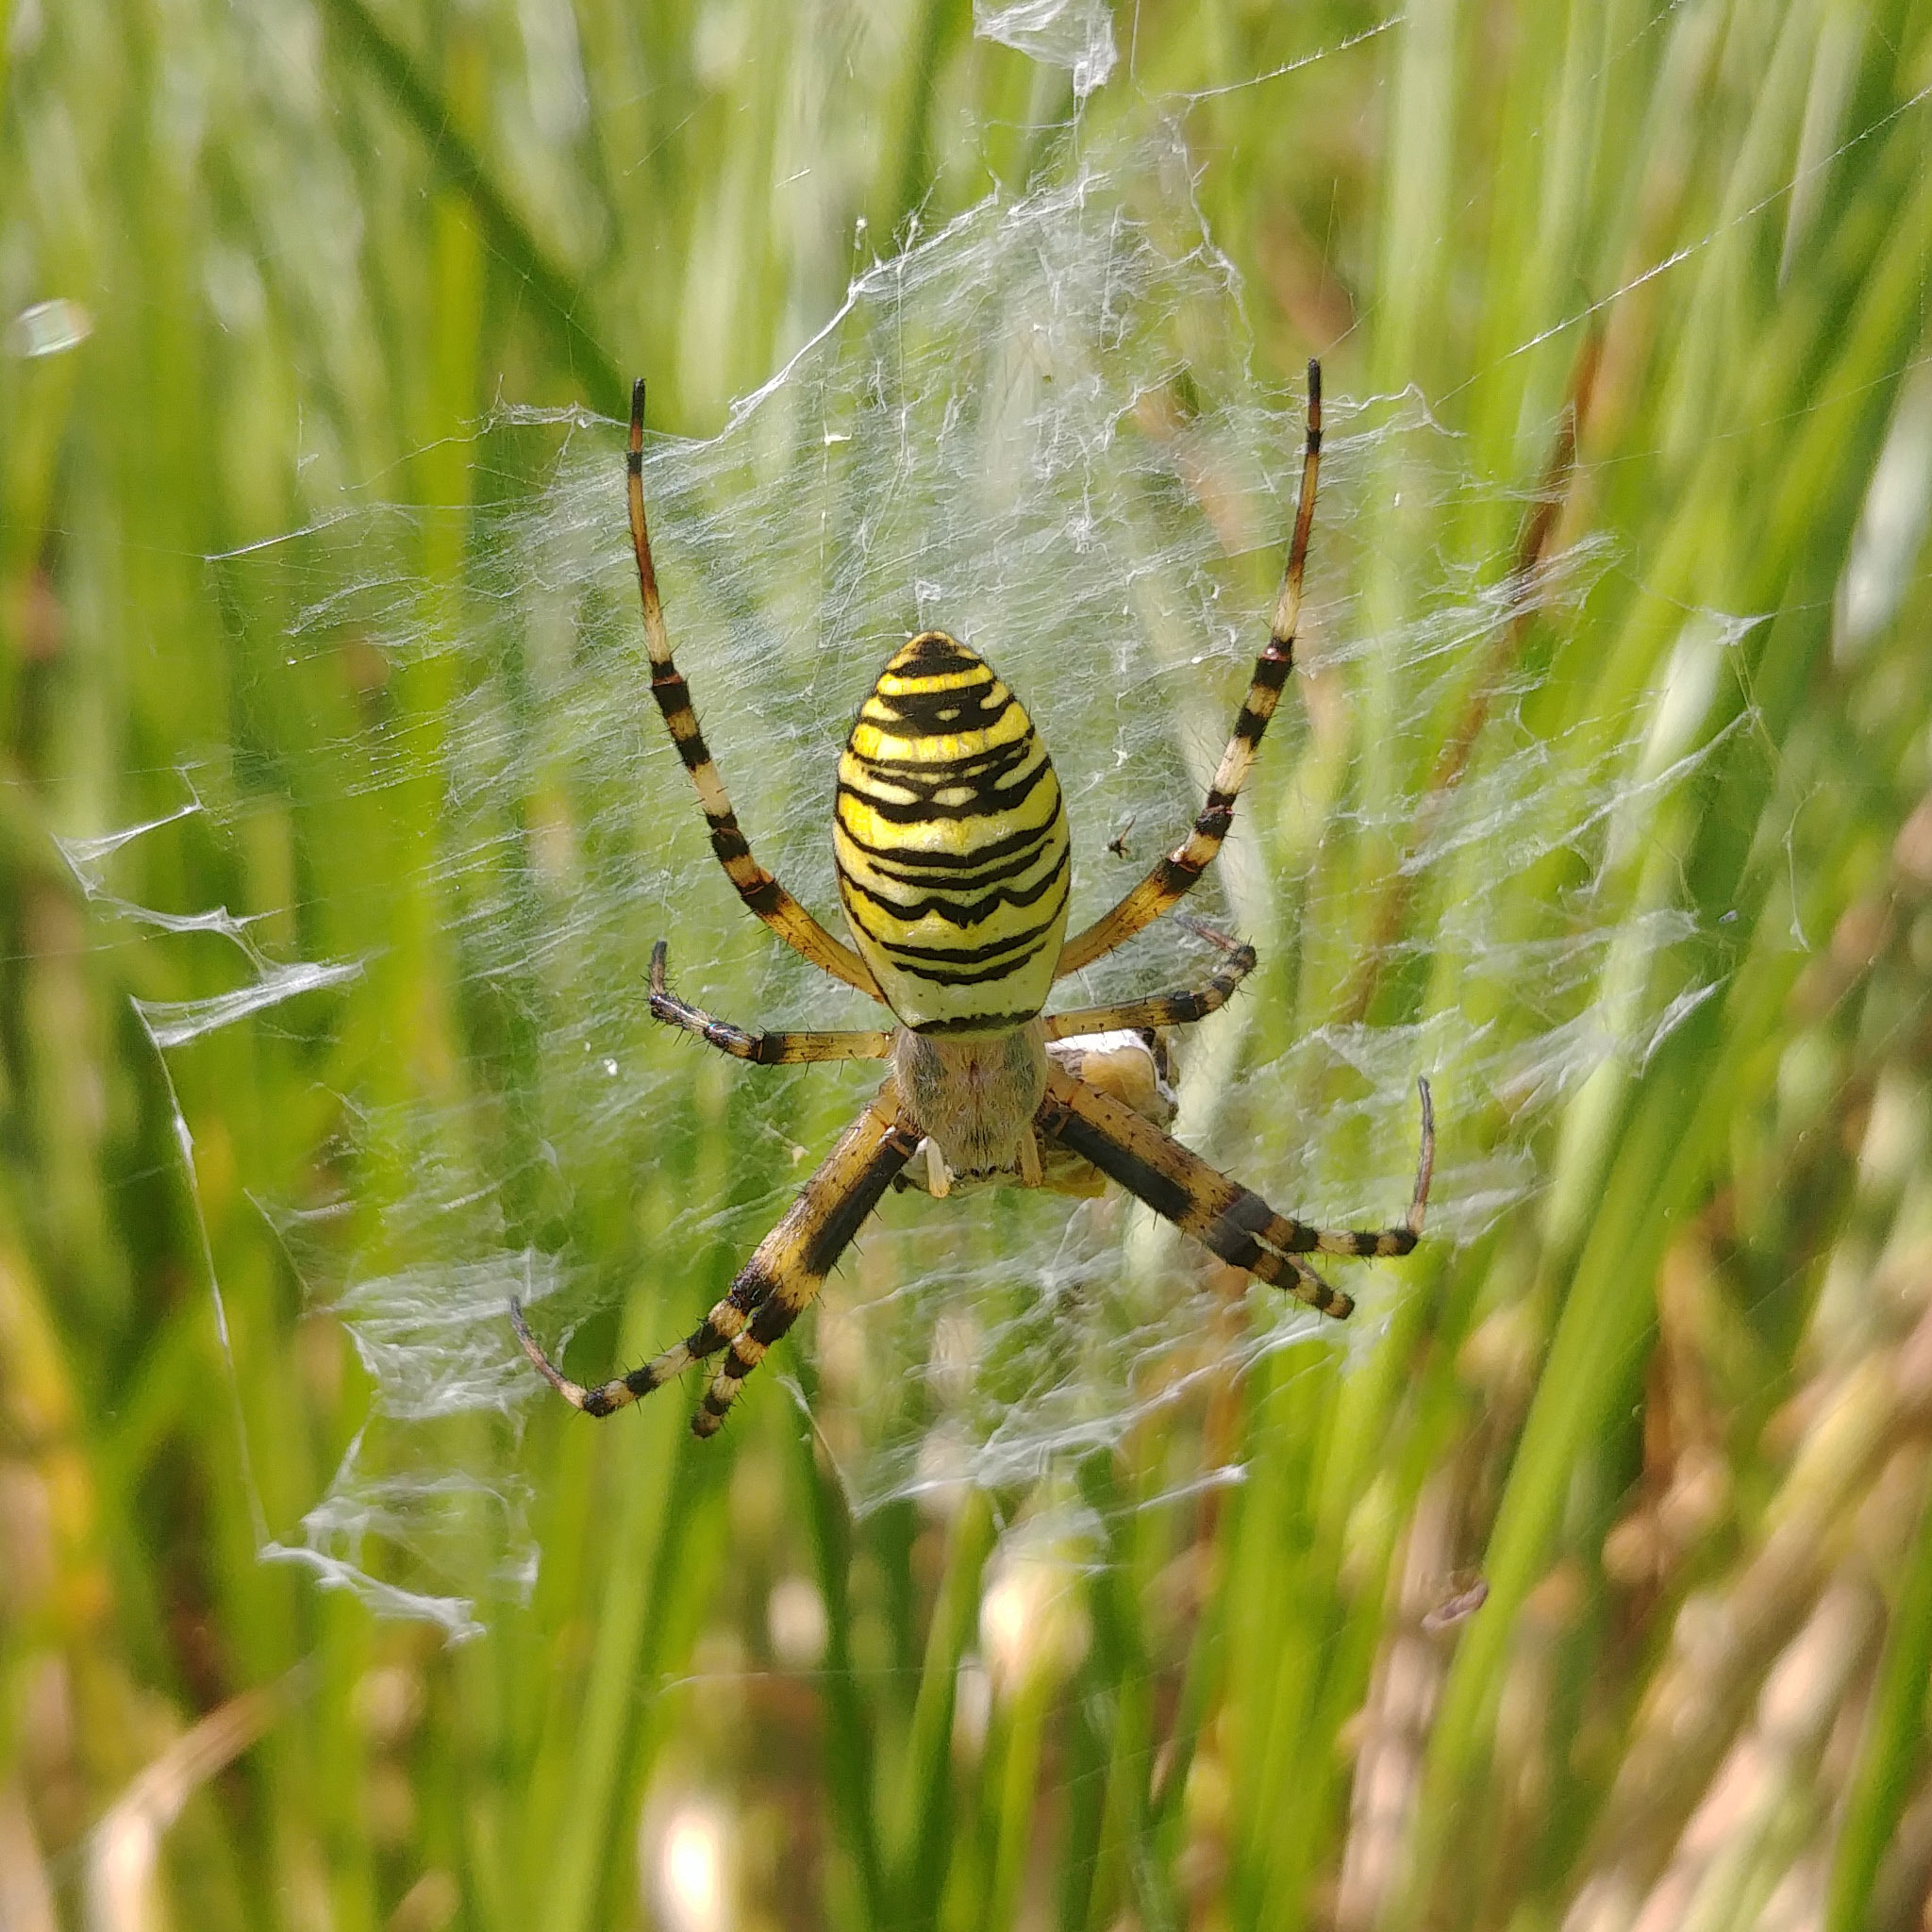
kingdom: Animalia
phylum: Arthropoda
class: Arachnida
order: Araneae
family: Araneidae
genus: Argiope
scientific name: Argiope bruennichi
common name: Wasp spider
